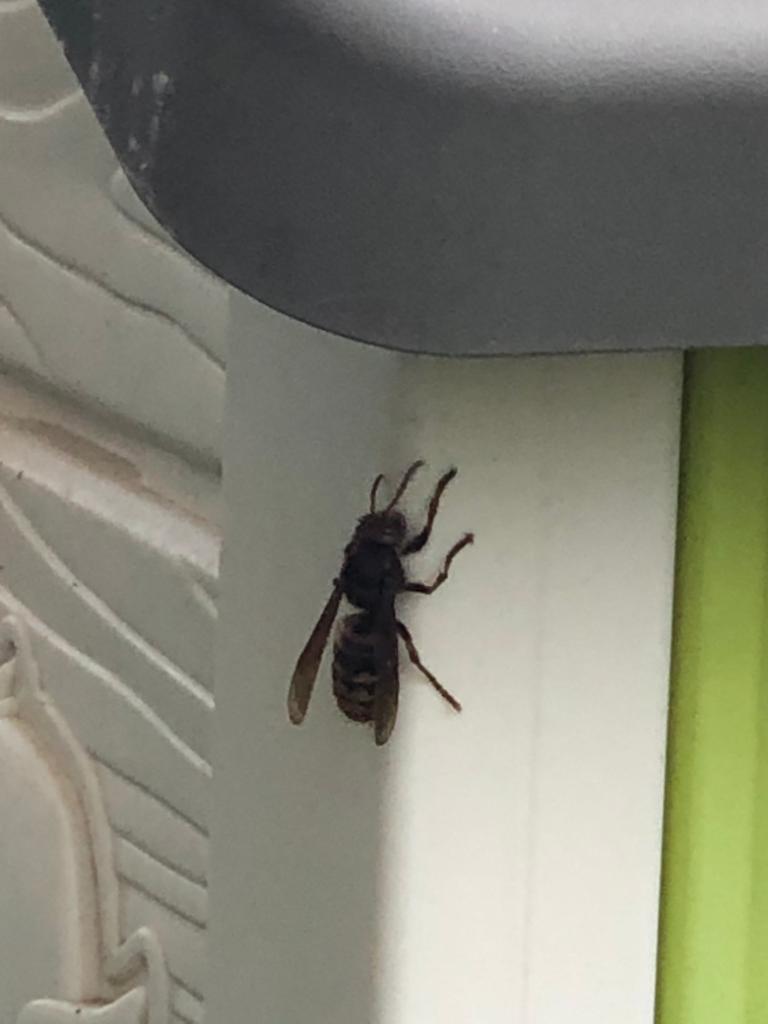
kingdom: Animalia
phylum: Arthropoda
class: Insecta
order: Hymenoptera
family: Vespidae
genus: Vespa
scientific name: Vespa crabro
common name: Hornet
